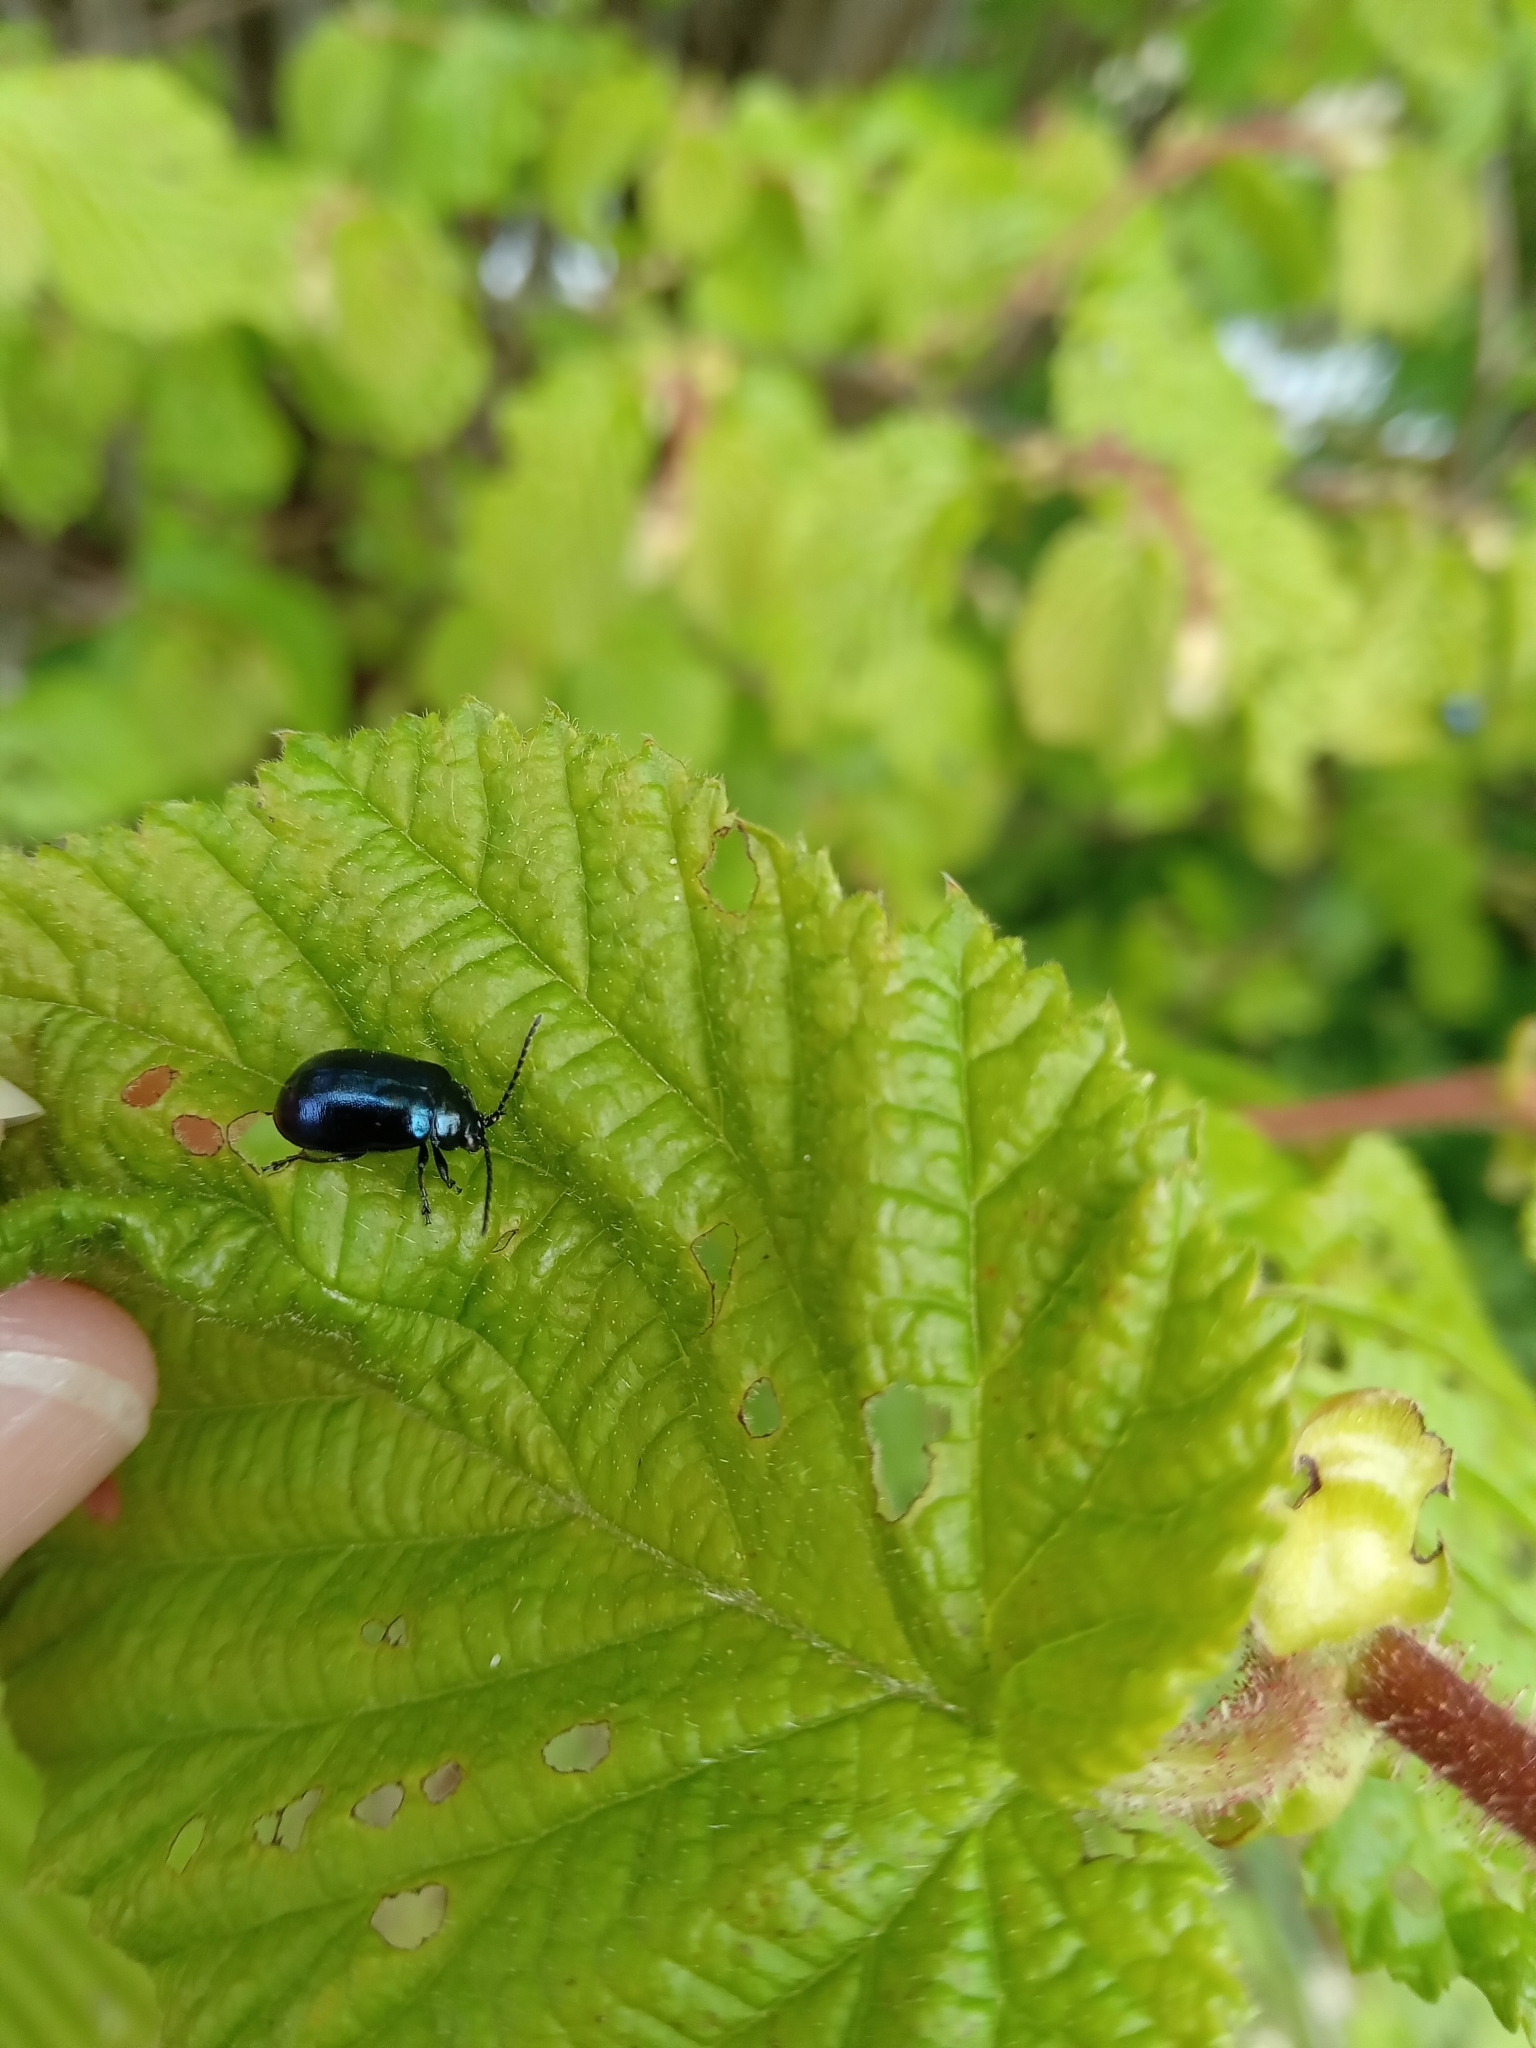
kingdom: Animalia
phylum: Arthropoda
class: Insecta
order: Coleoptera
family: Chrysomelidae
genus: Agelastica
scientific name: Agelastica alni
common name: Alder leaf beetle
